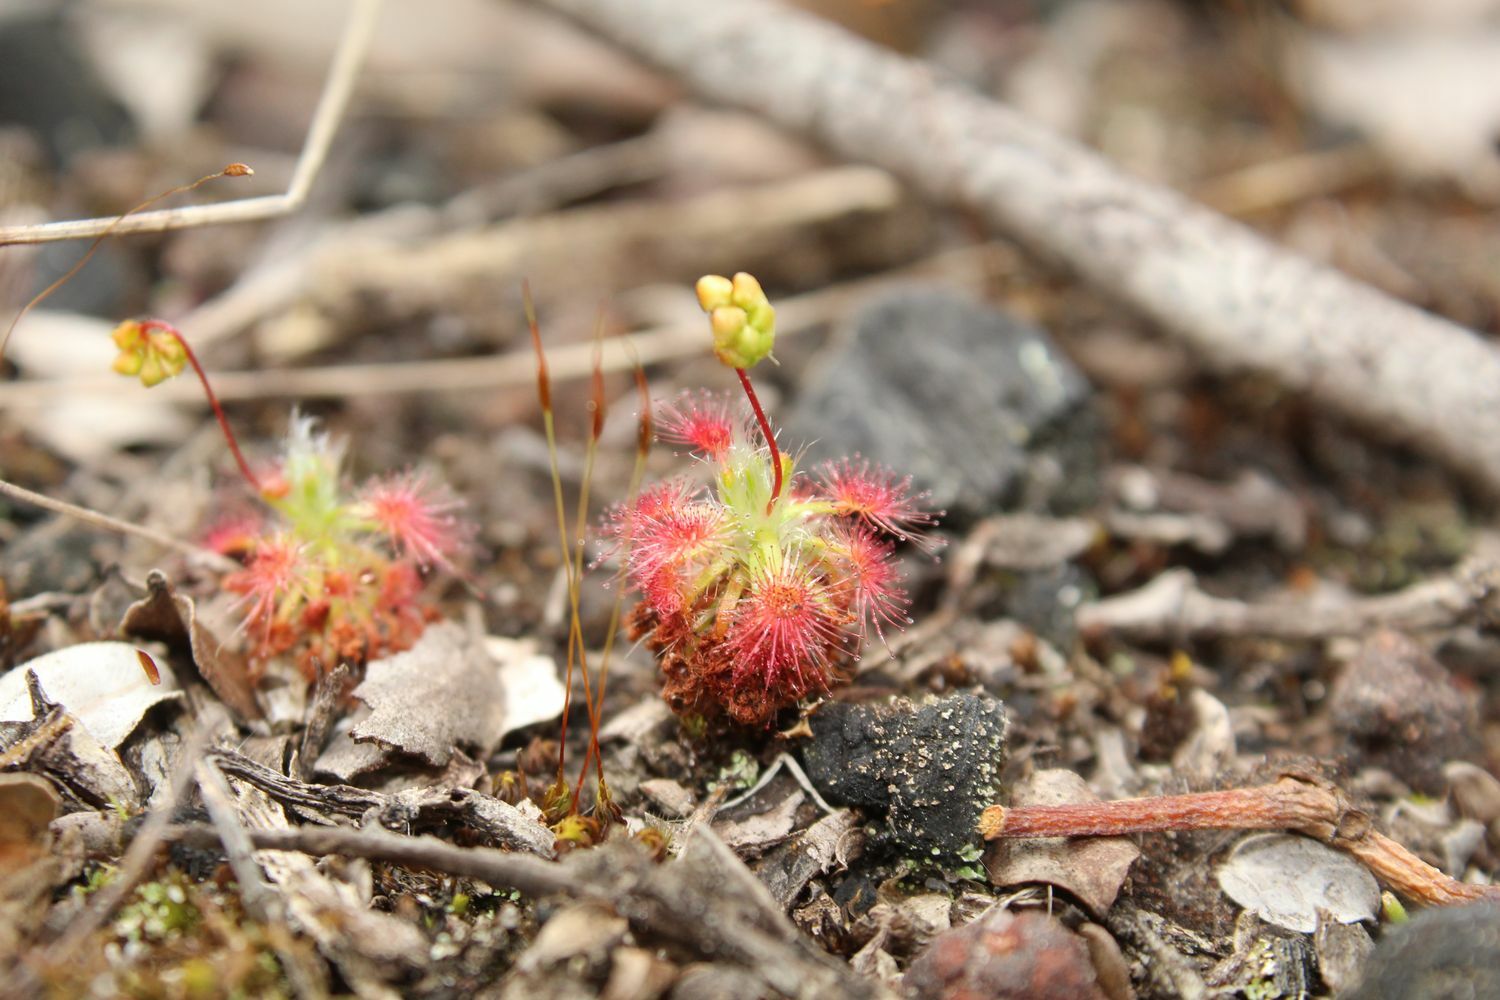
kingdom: Plantae
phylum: Tracheophyta
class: Magnoliopsida
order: Caryophyllales
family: Droseraceae
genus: Drosera
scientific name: Drosera paleacea
